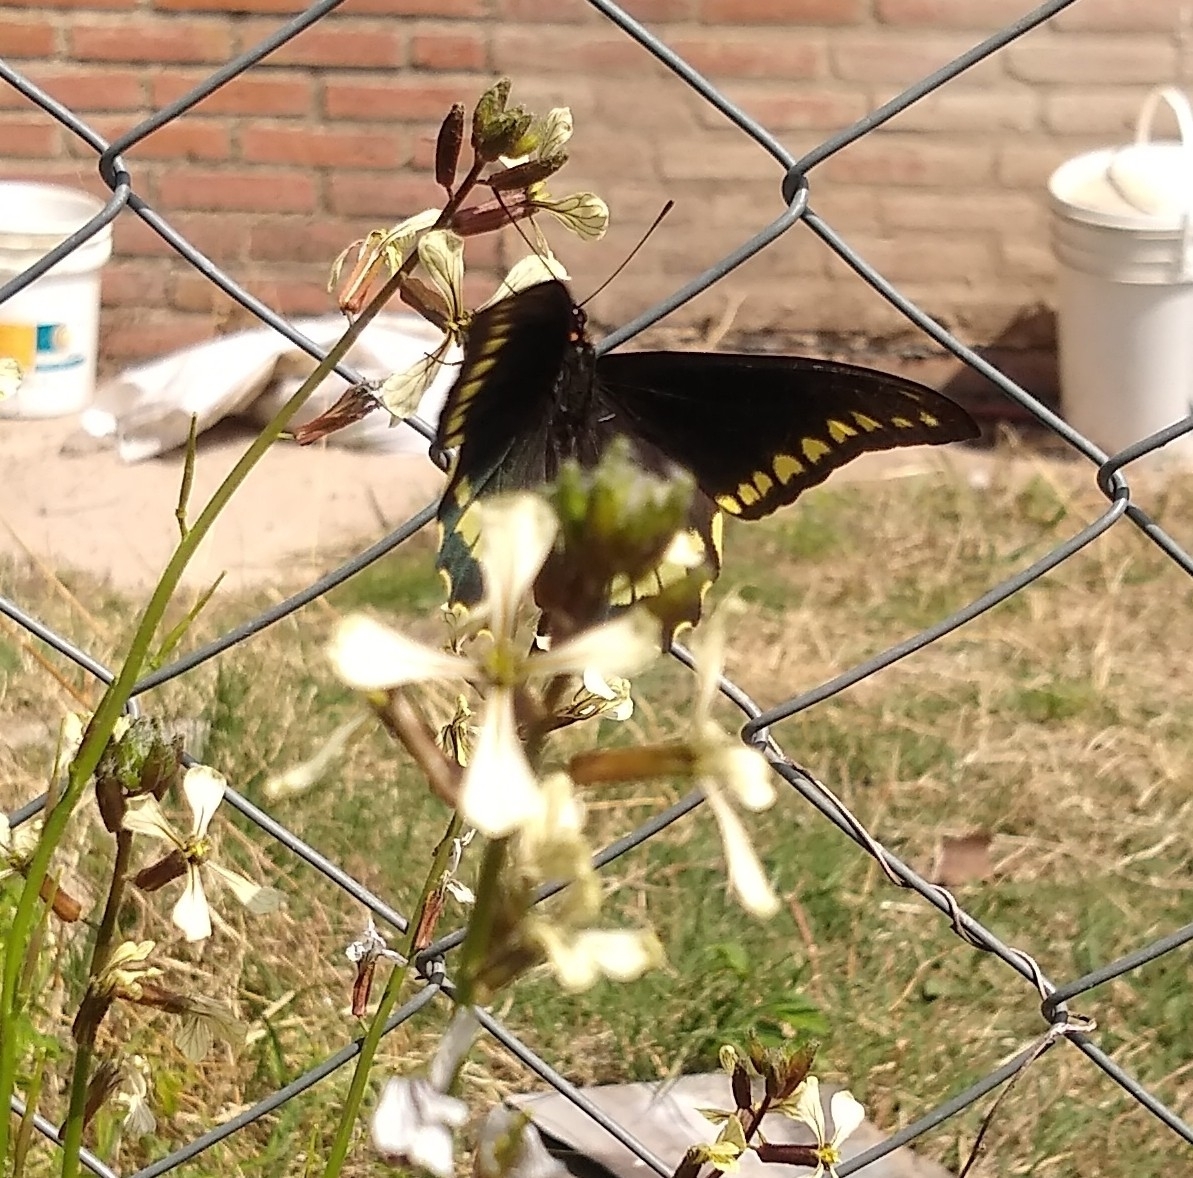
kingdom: Animalia
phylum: Arthropoda
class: Insecta
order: Lepidoptera
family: Papilionidae
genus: Battus
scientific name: Battus polydamas
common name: Polydamas swallowtail
